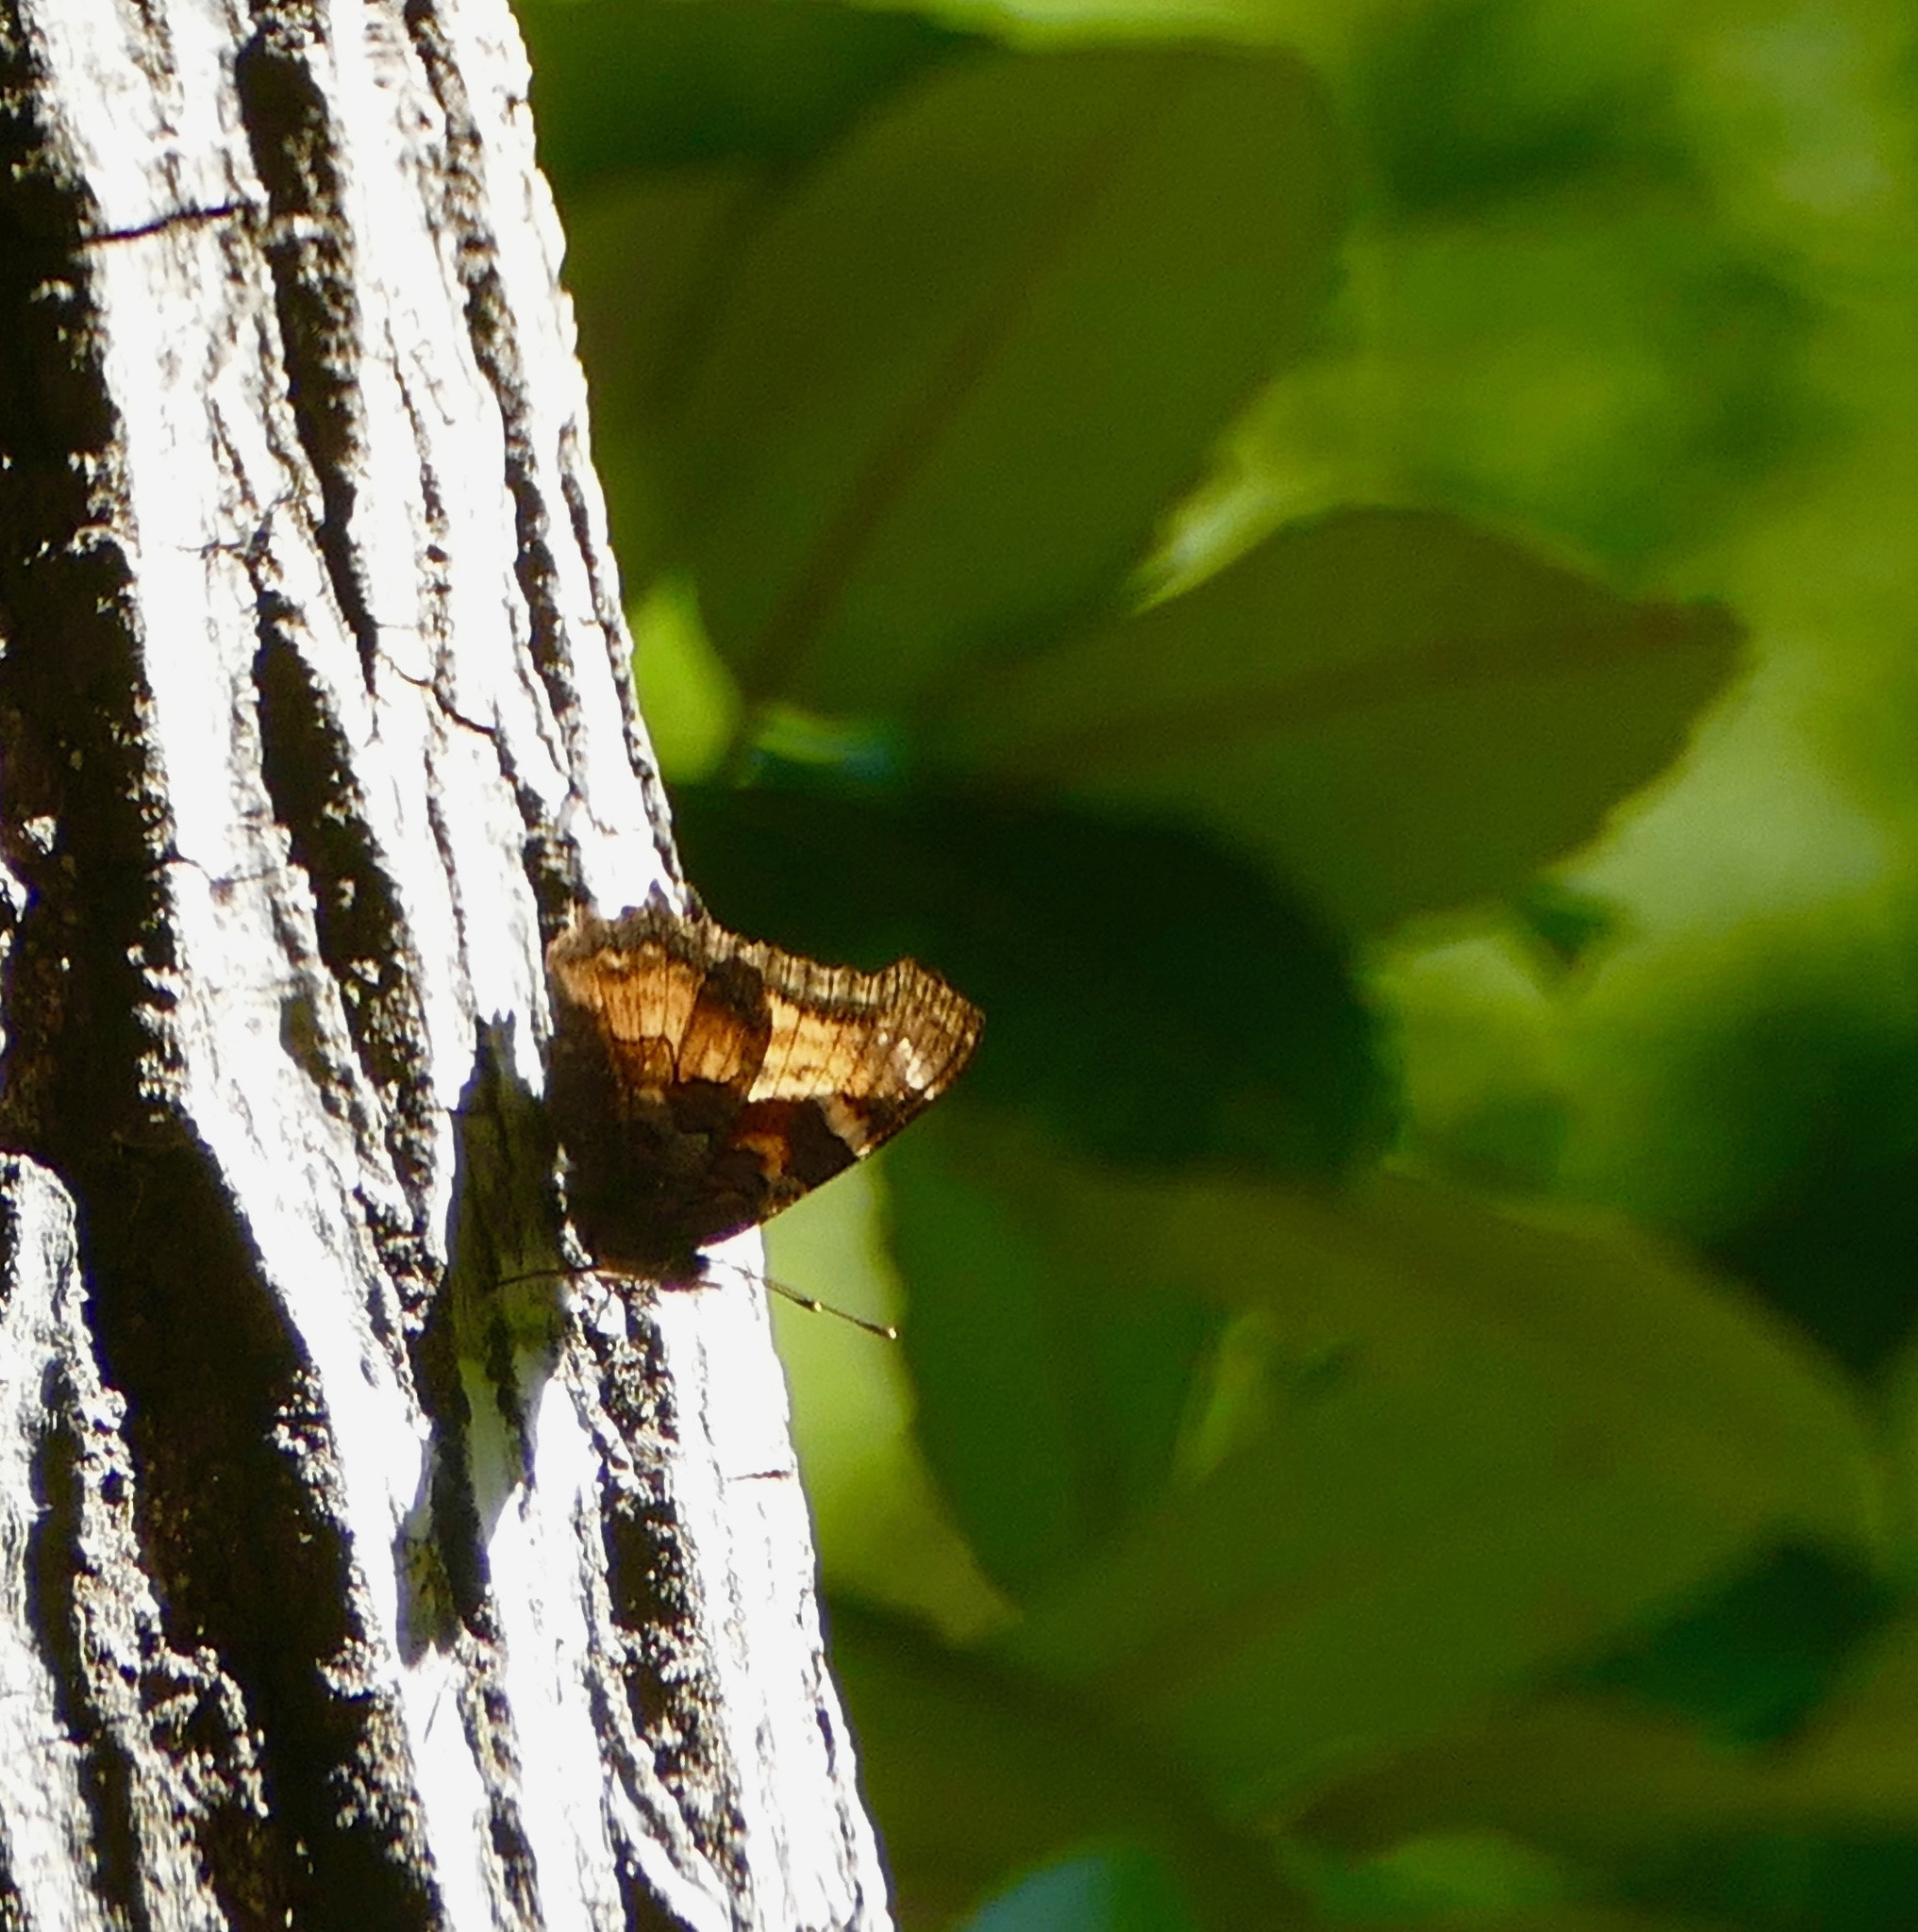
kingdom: Animalia
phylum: Arthropoda
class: Insecta
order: Lepidoptera
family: Nymphalidae
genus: Nymphalis
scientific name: Nymphalis californica
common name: California tortoiseshell
